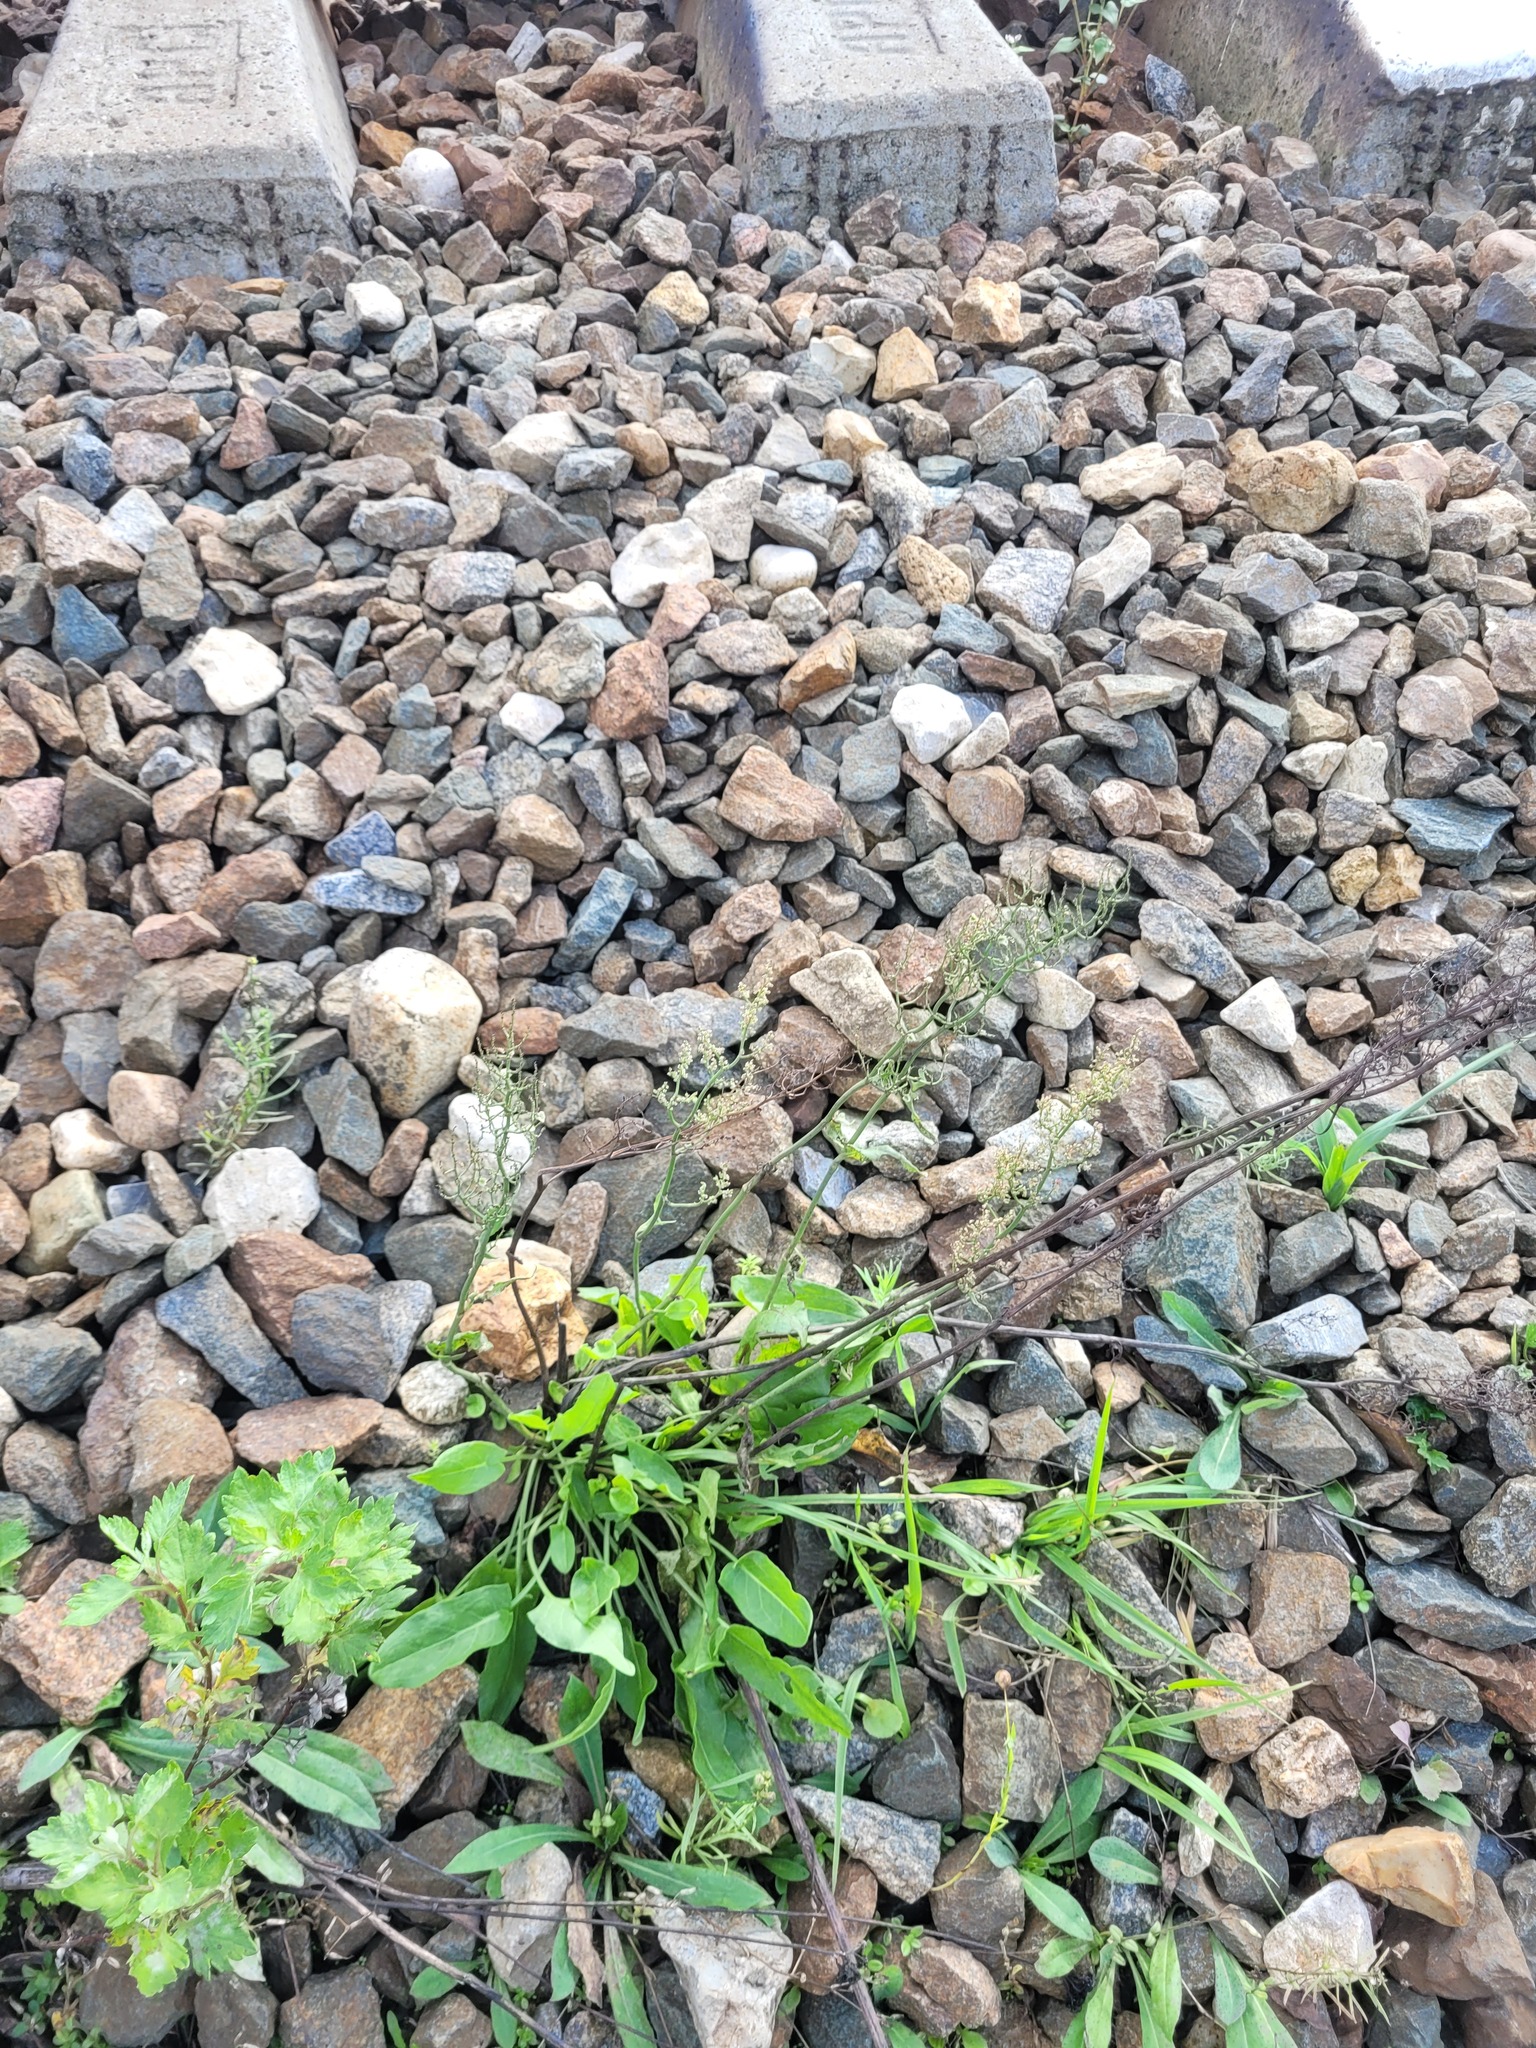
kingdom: Plantae
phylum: Tracheophyta
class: Magnoliopsida
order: Caryophyllales
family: Polygonaceae
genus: Rumex
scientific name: Rumex thyrsiflorus
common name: Garden sorrel
